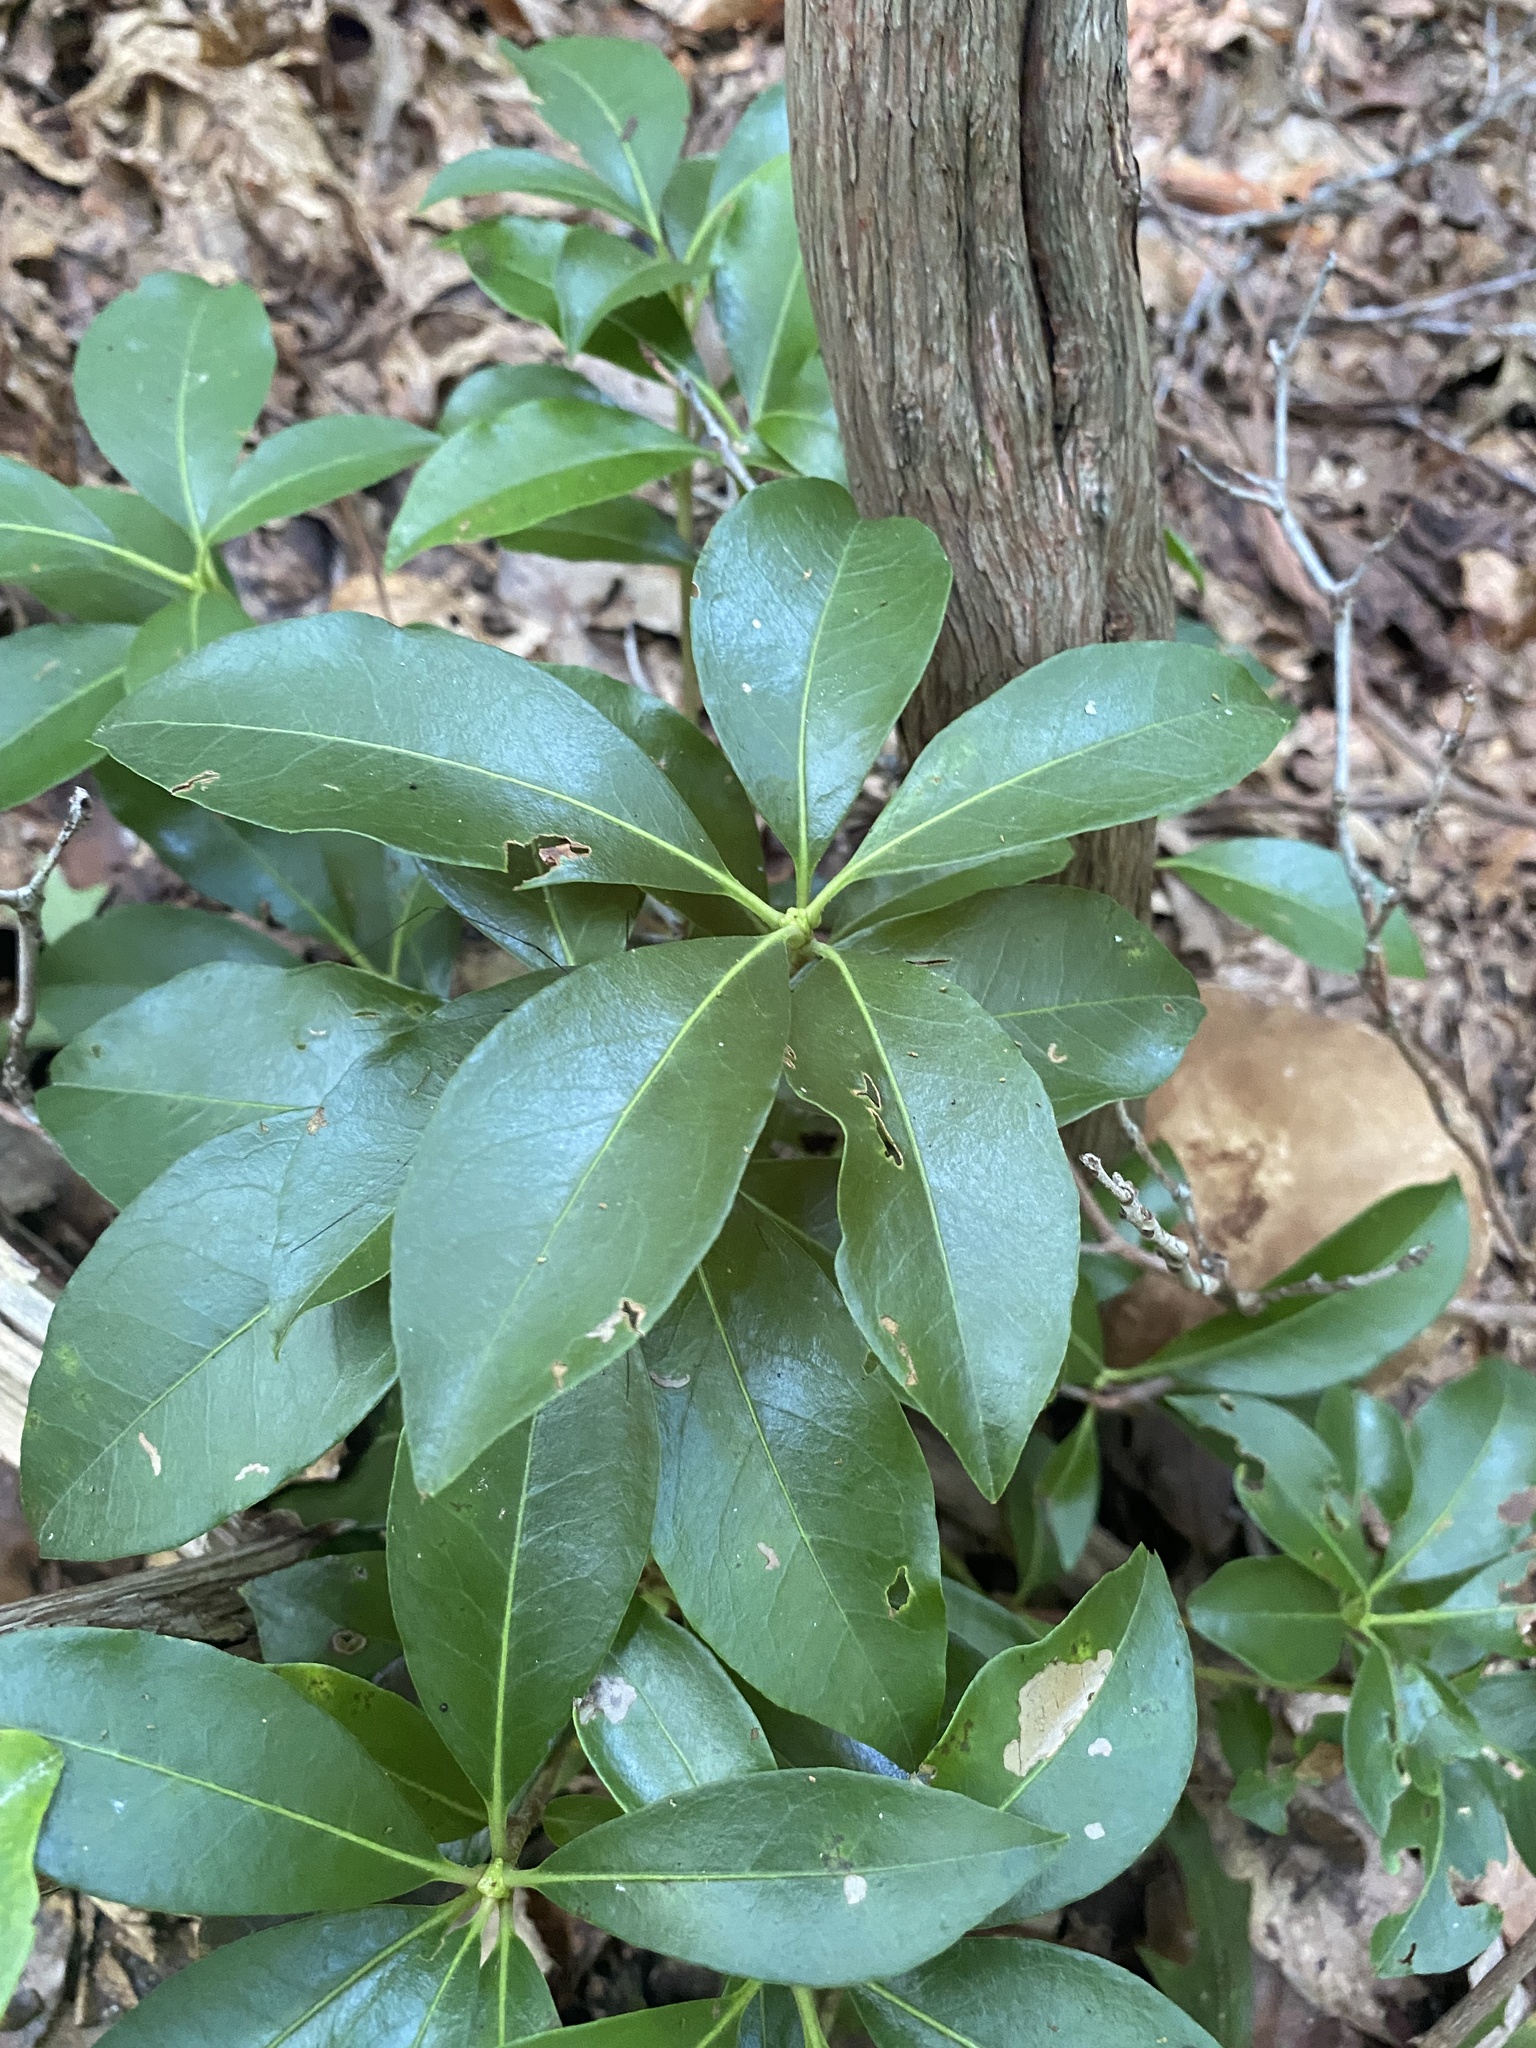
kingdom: Plantae
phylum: Tracheophyta
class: Magnoliopsida
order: Ericales
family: Ericaceae
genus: Kalmia
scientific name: Kalmia latifolia
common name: Mountain-laurel
